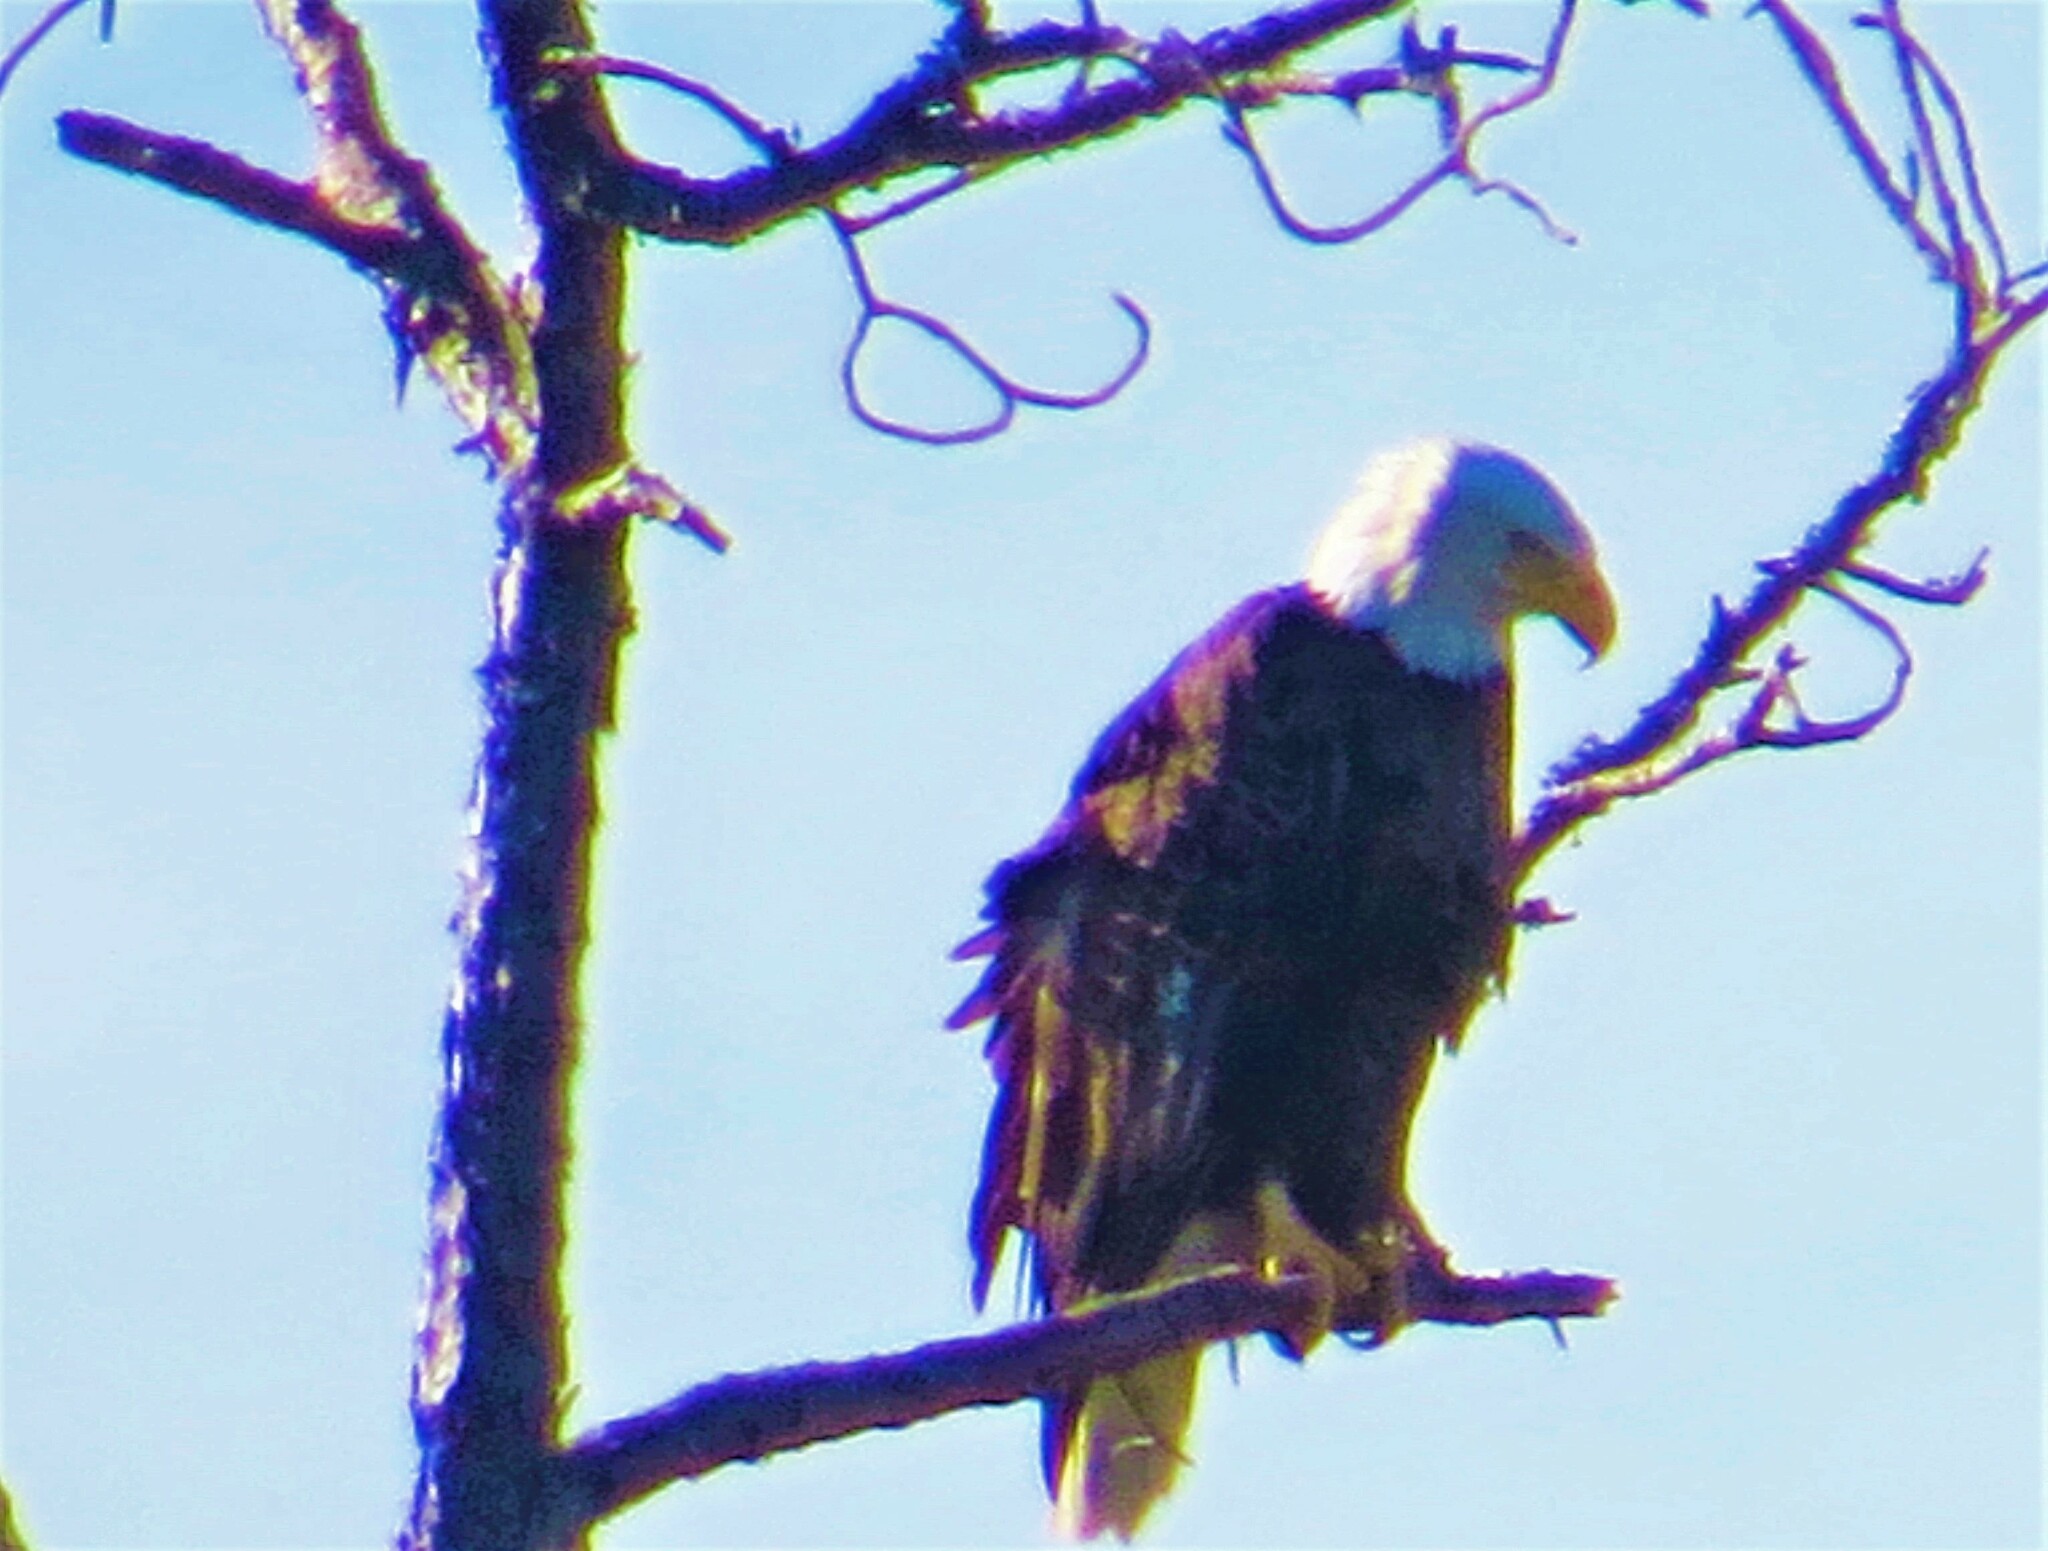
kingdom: Animalia
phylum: Chordata
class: Aves
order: Accipitriformes
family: Accipitridae
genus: Haliaeetus
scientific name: Haliaeetus leucocephalus
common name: Bald eagle
